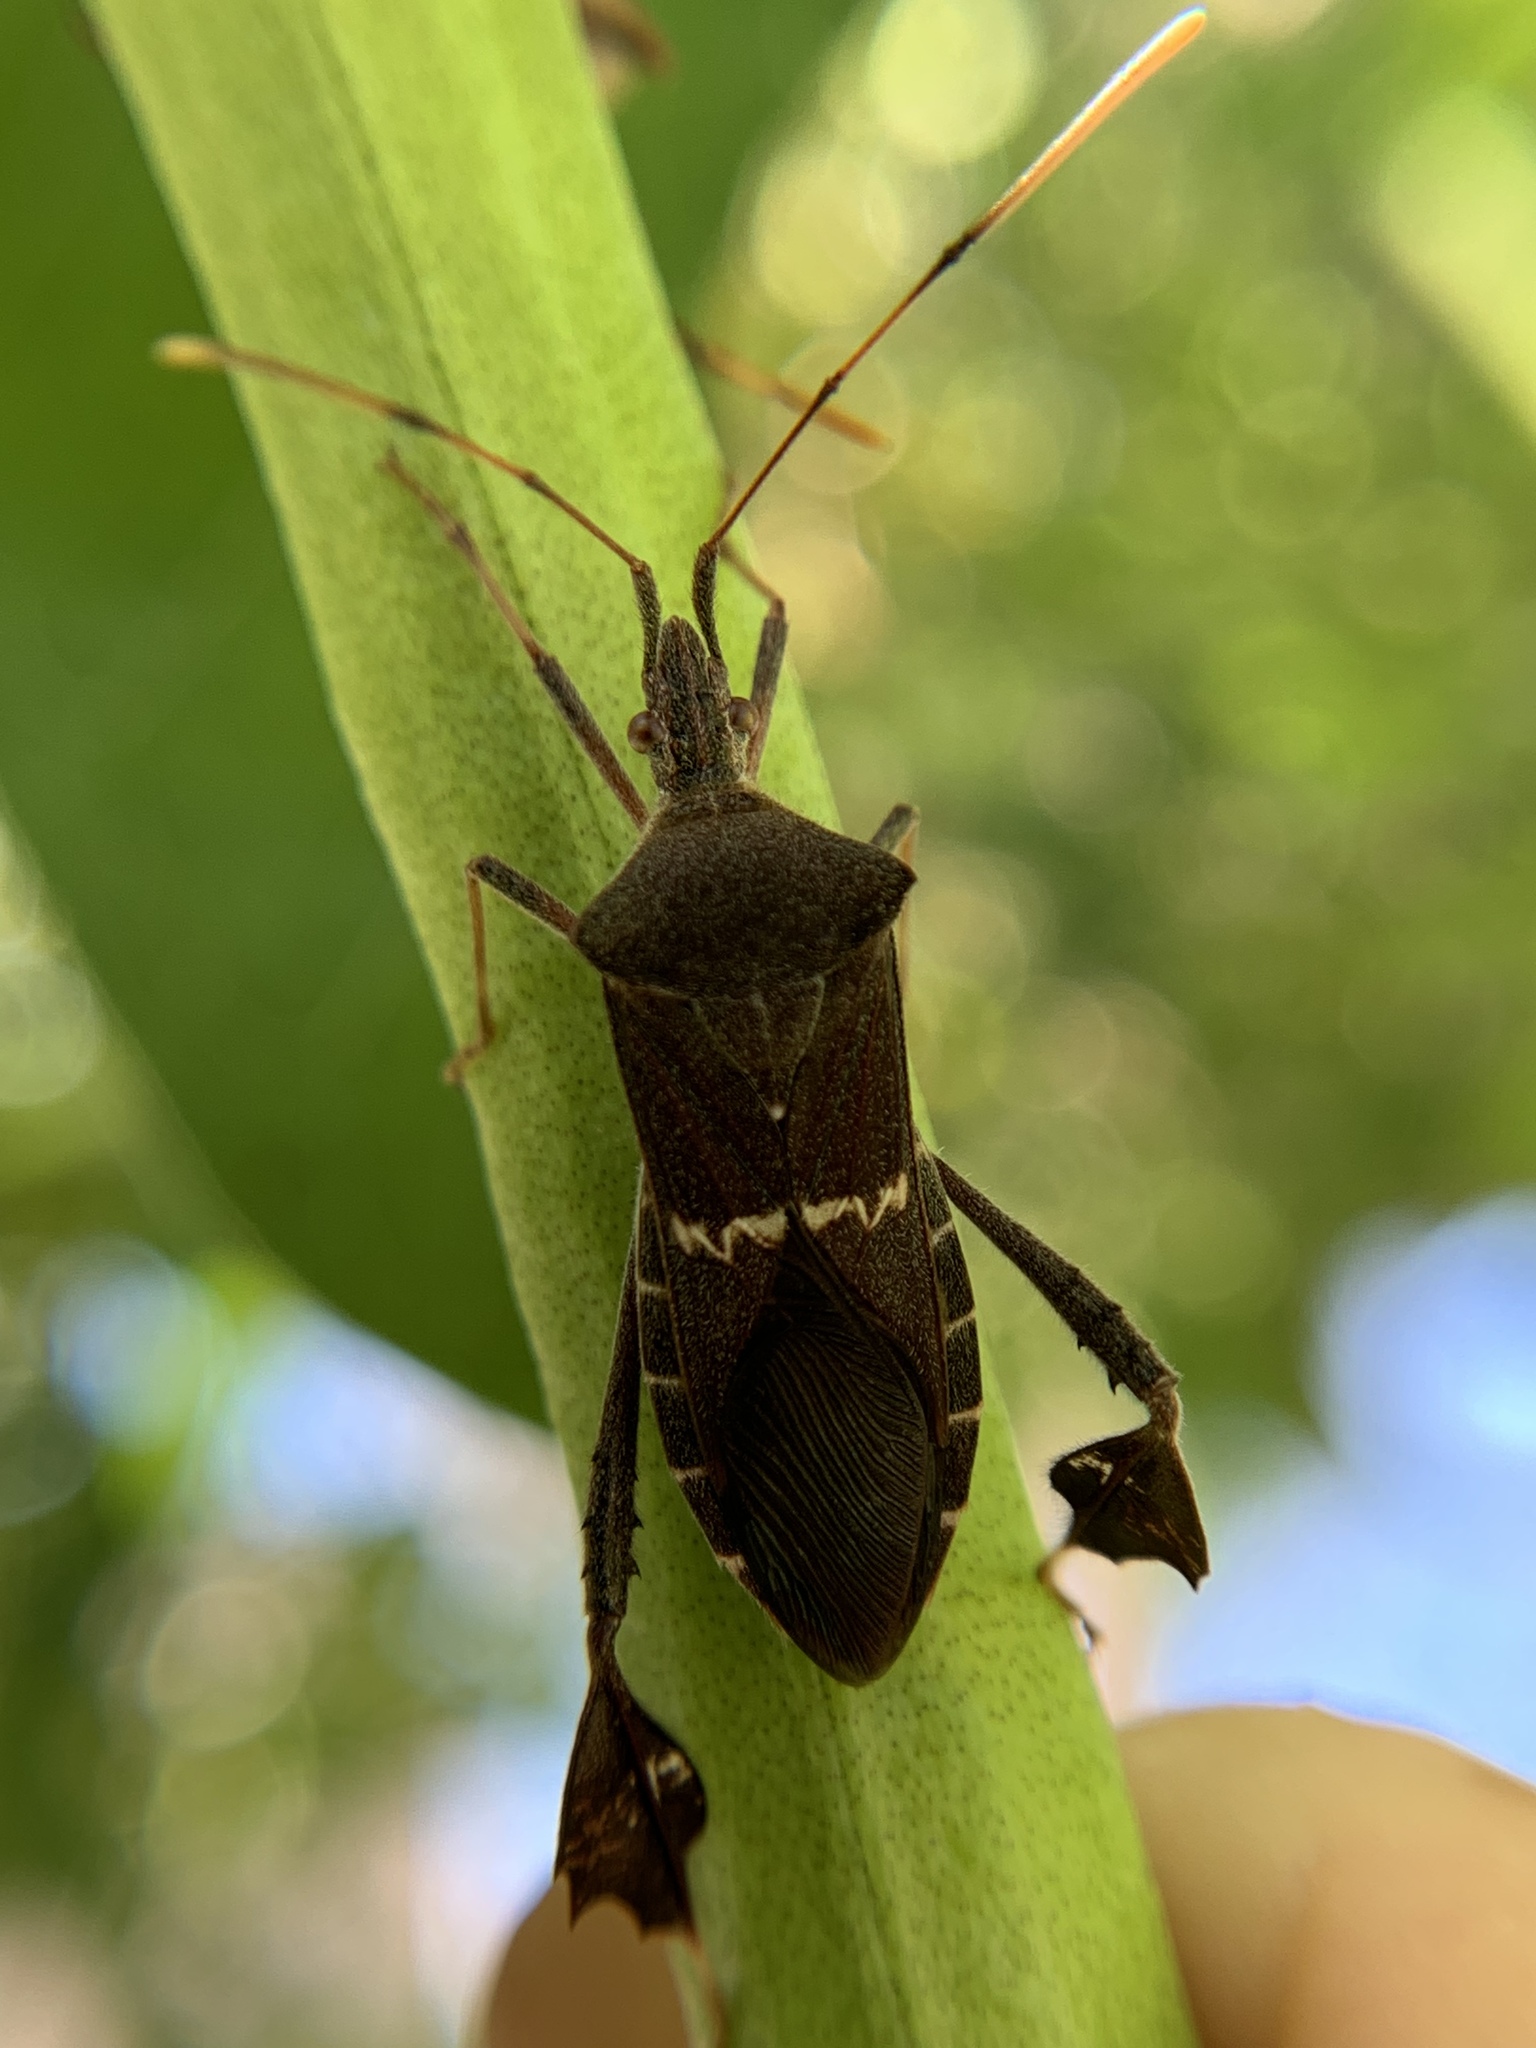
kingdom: Animalia
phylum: Arthropoda
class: Insecta
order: Hemiptera
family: Coreidae
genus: Leptoglossus
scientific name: Leptoglossus concolor
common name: Leaf-footed bug
